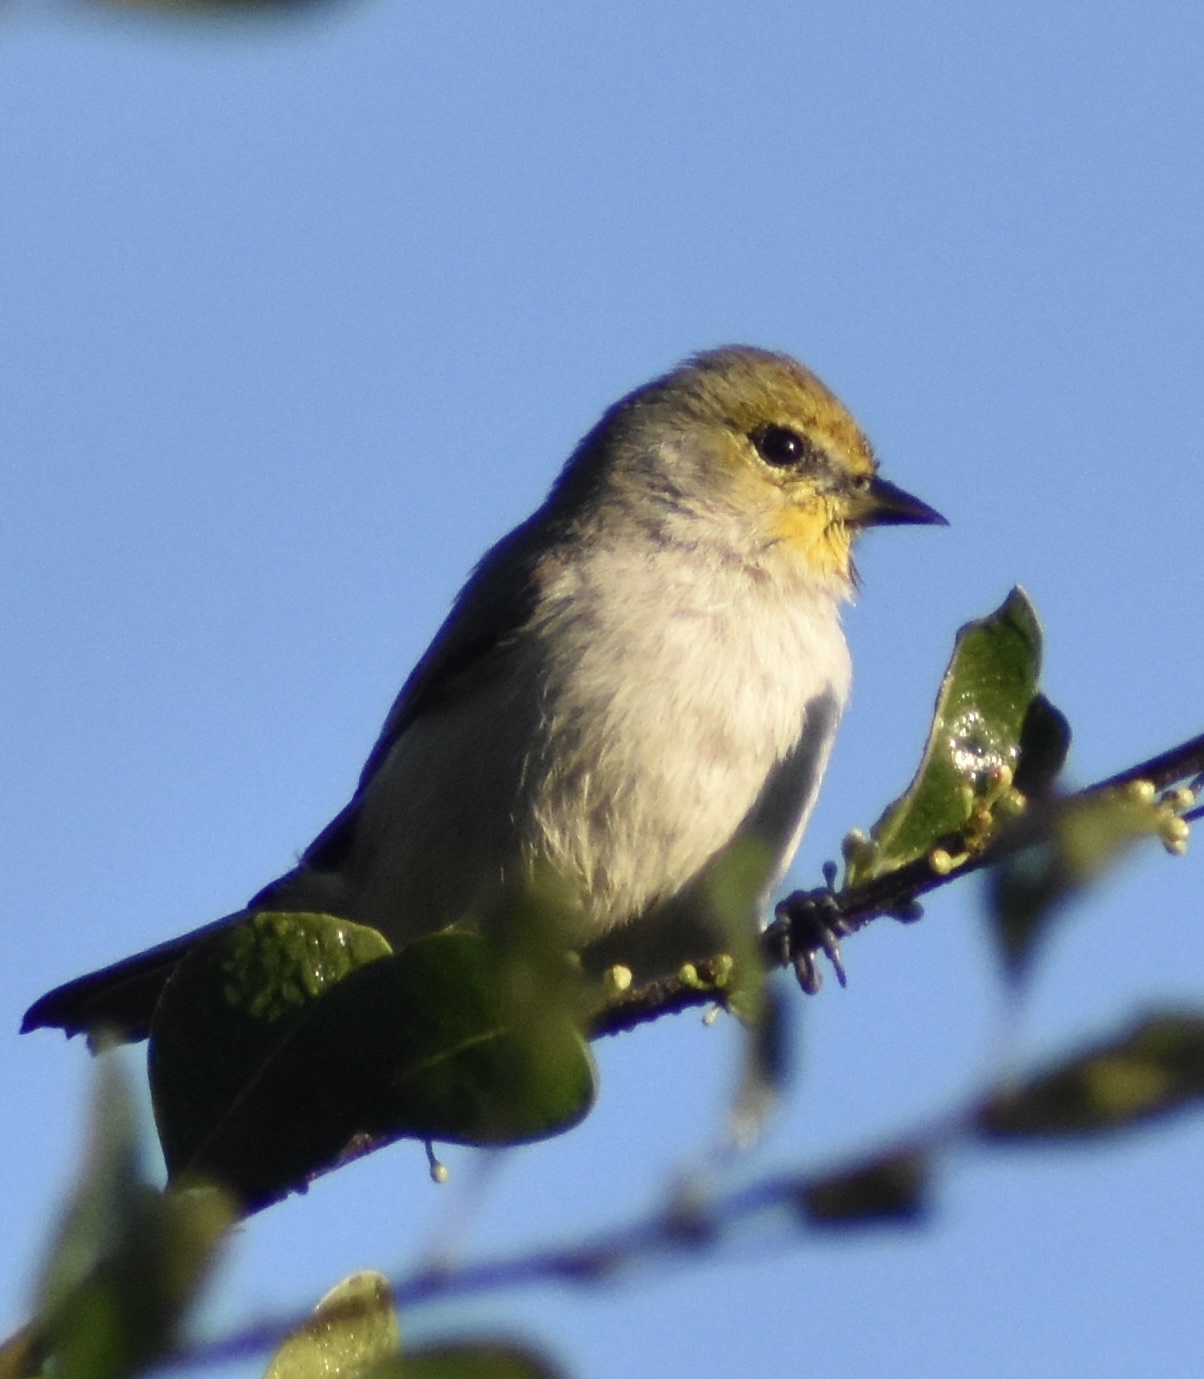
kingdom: Animalia
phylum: Chordata
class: Aves
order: Passeriformes
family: Remizidae
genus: Auriparus
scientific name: Auriparus flaviceps
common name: Verdin
